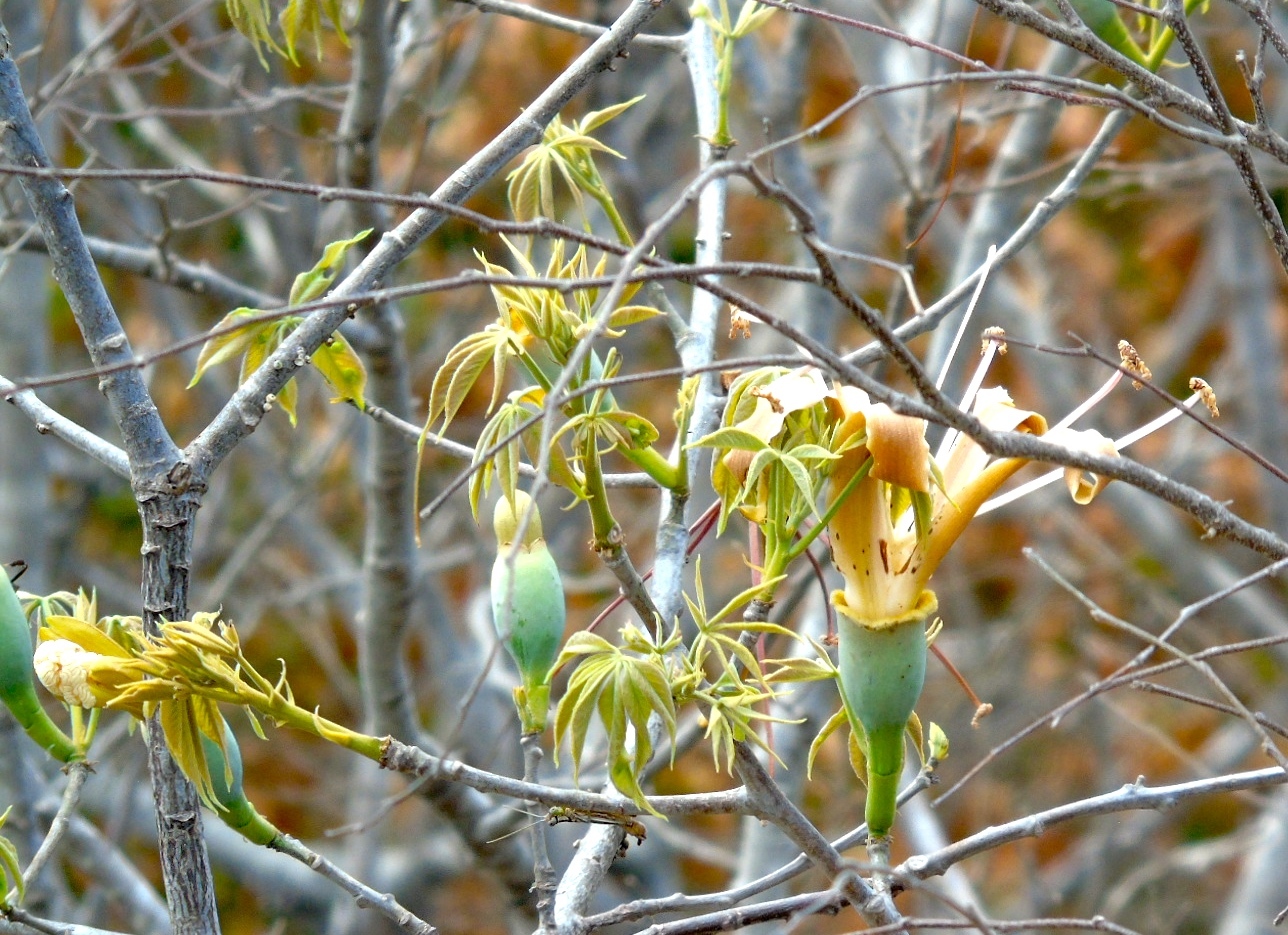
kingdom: Plantae
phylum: Tracheophyta
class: Magnoliopsida
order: Malvales
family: Malvaceae
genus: Ceiba
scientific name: Ceiba aesculifolia
